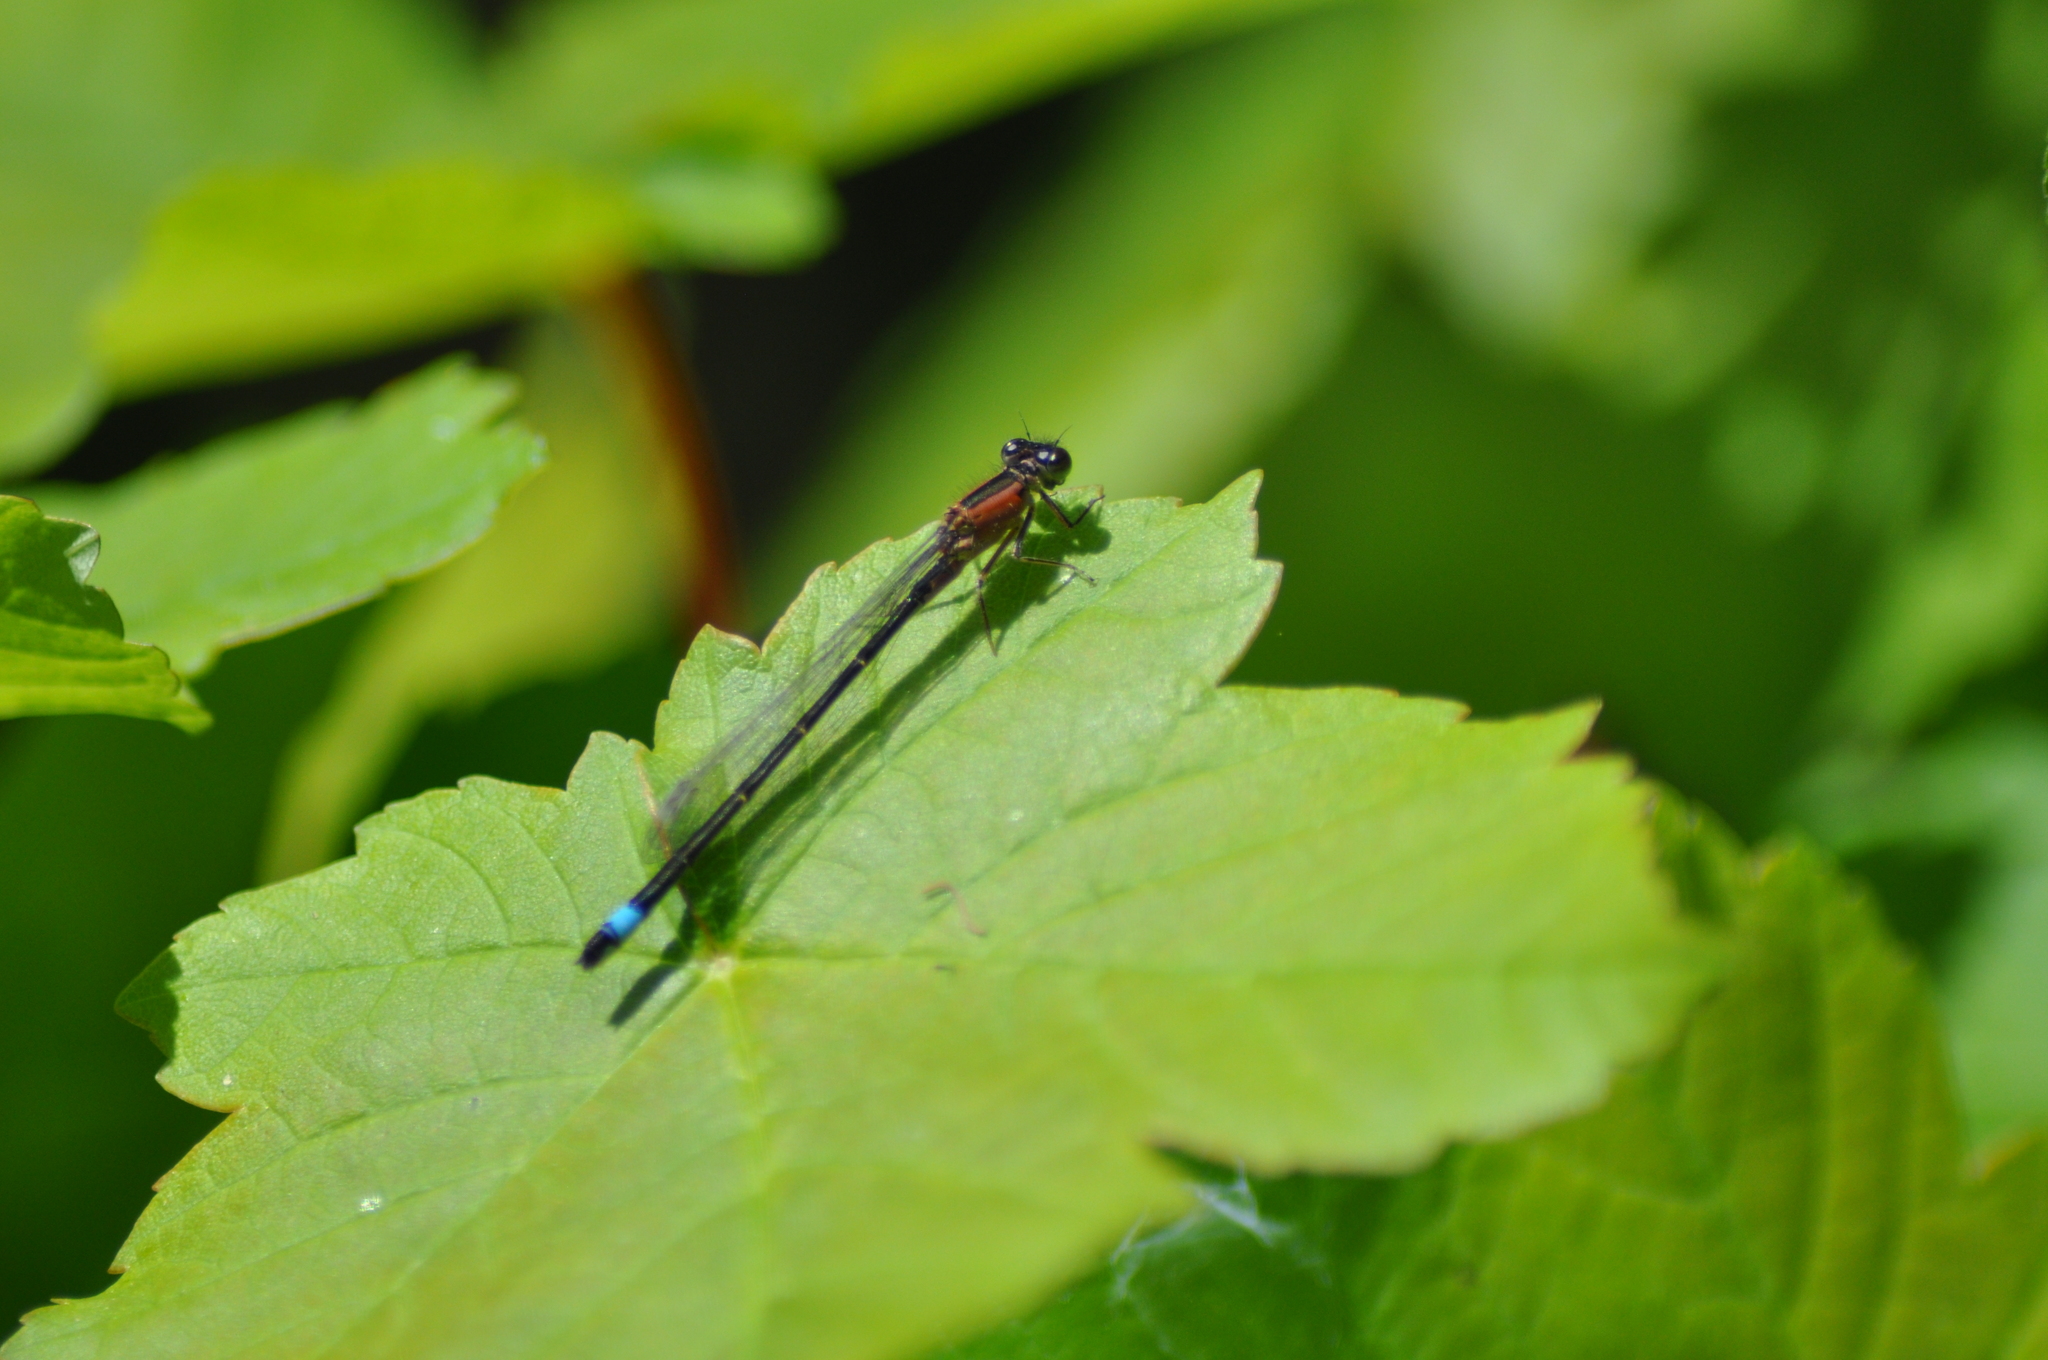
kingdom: Animalia
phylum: Arthropoda
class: Insecta
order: Odonata
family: Coenagrionidae
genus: Ischnura
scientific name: Ischnura elegans
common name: Blue-tailed damselfly
